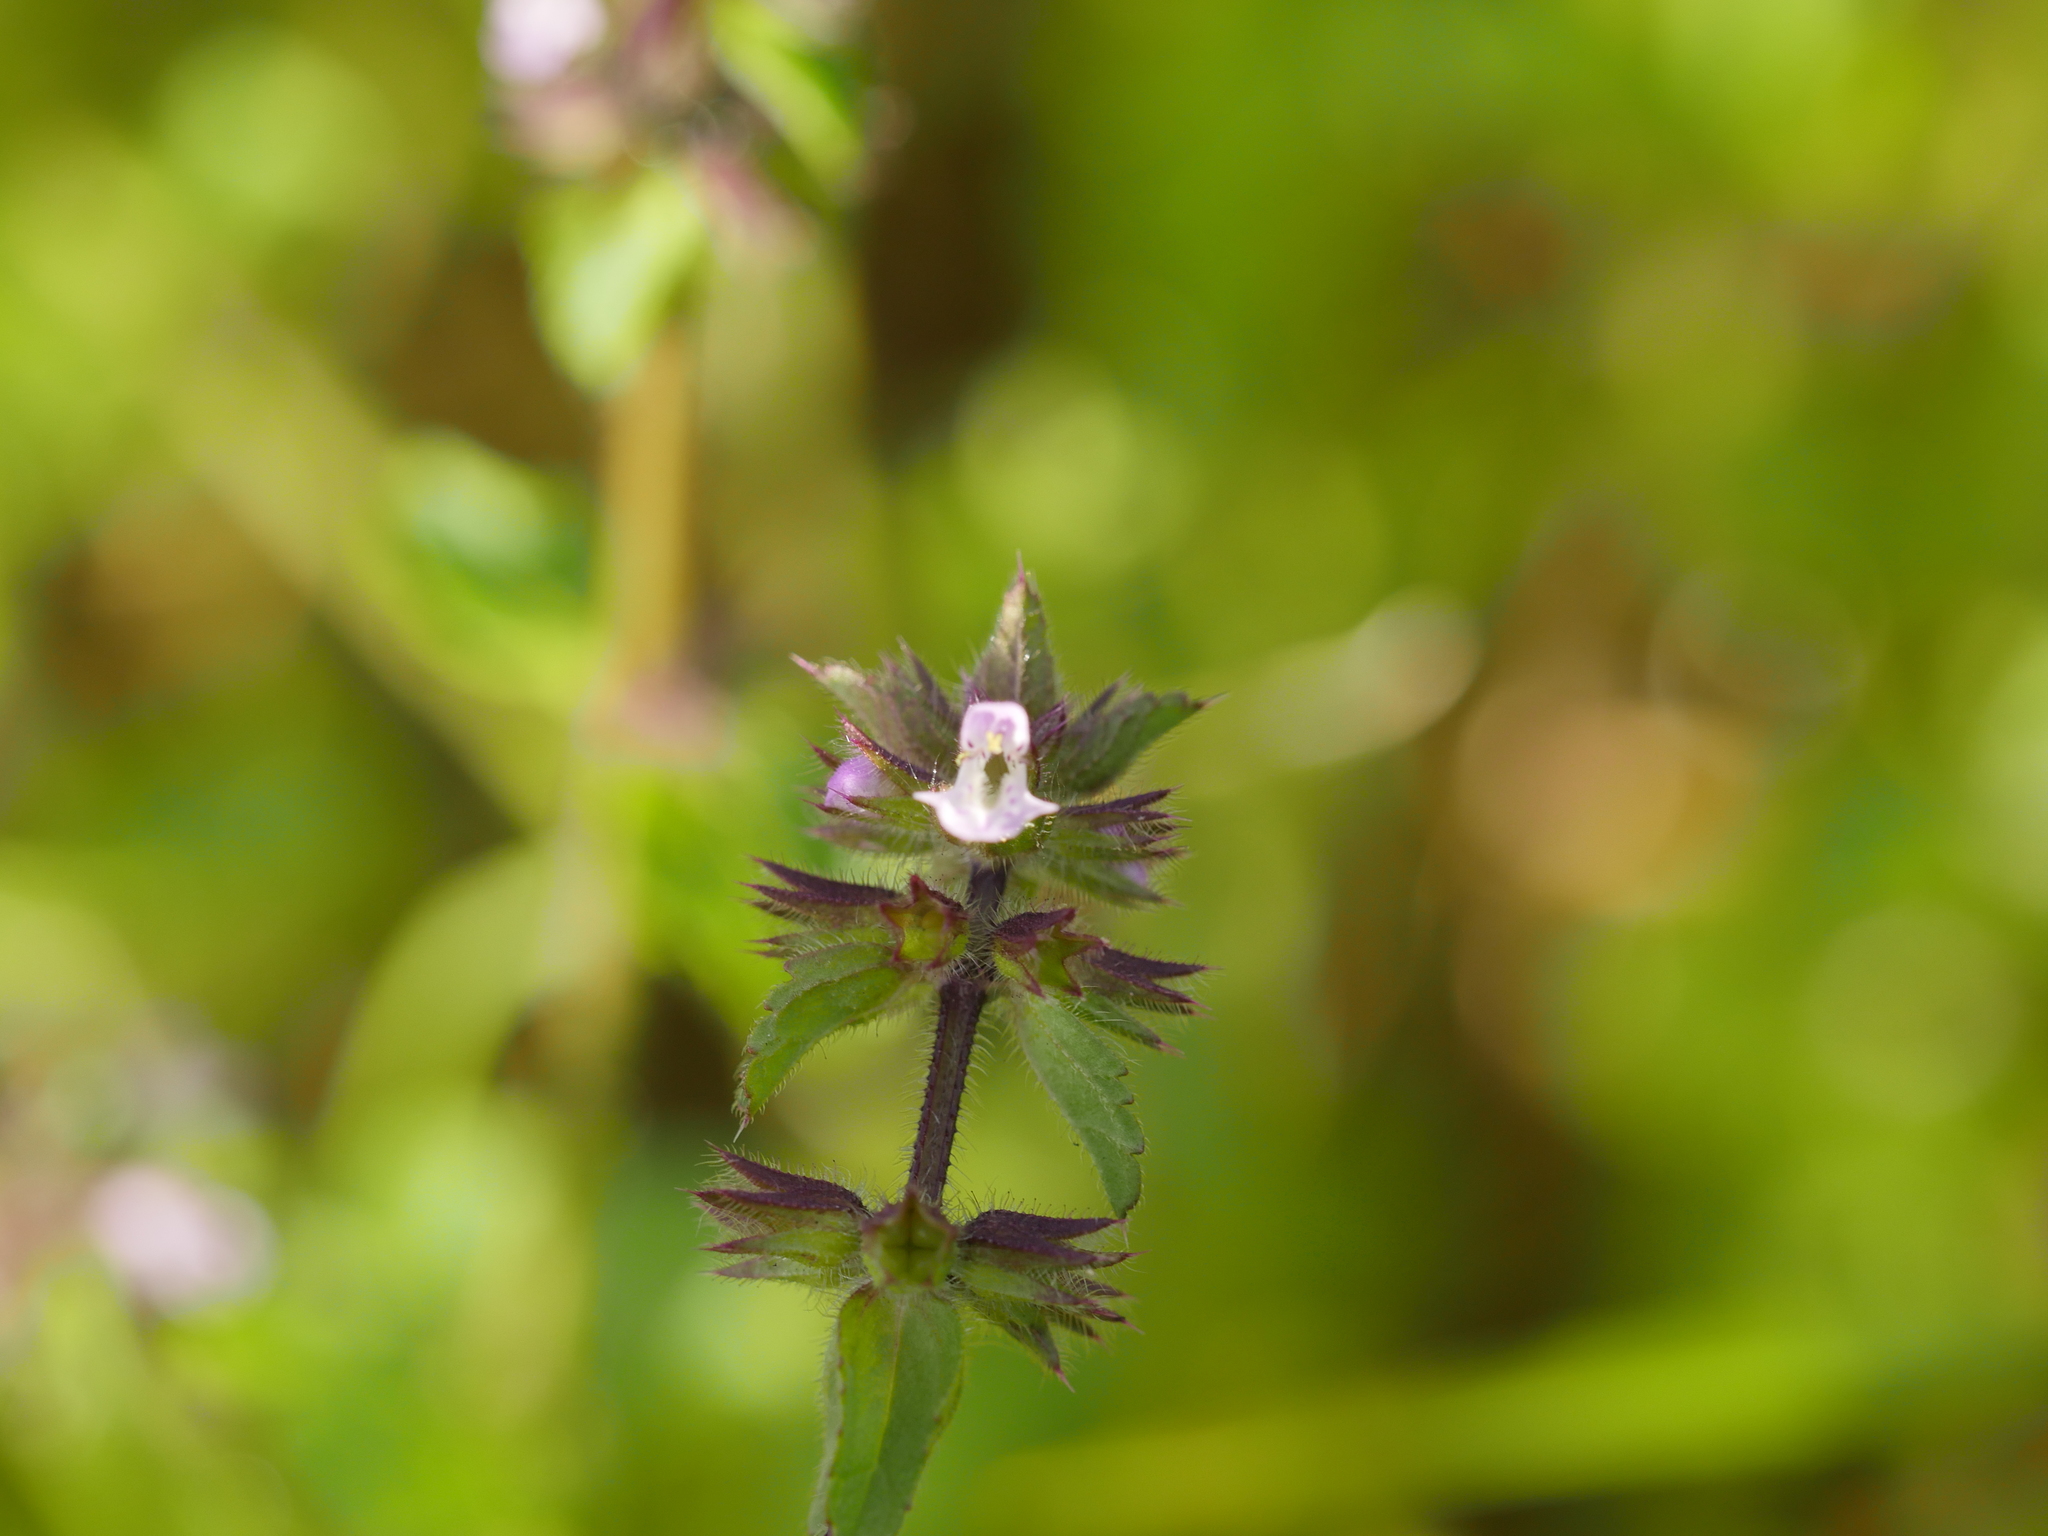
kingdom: Plantae
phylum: Tracheophyta
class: Magnoliopsida
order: Lamiales
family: Lamiaceae
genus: Stachys
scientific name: Stachys arvensis
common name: Field woundwort
